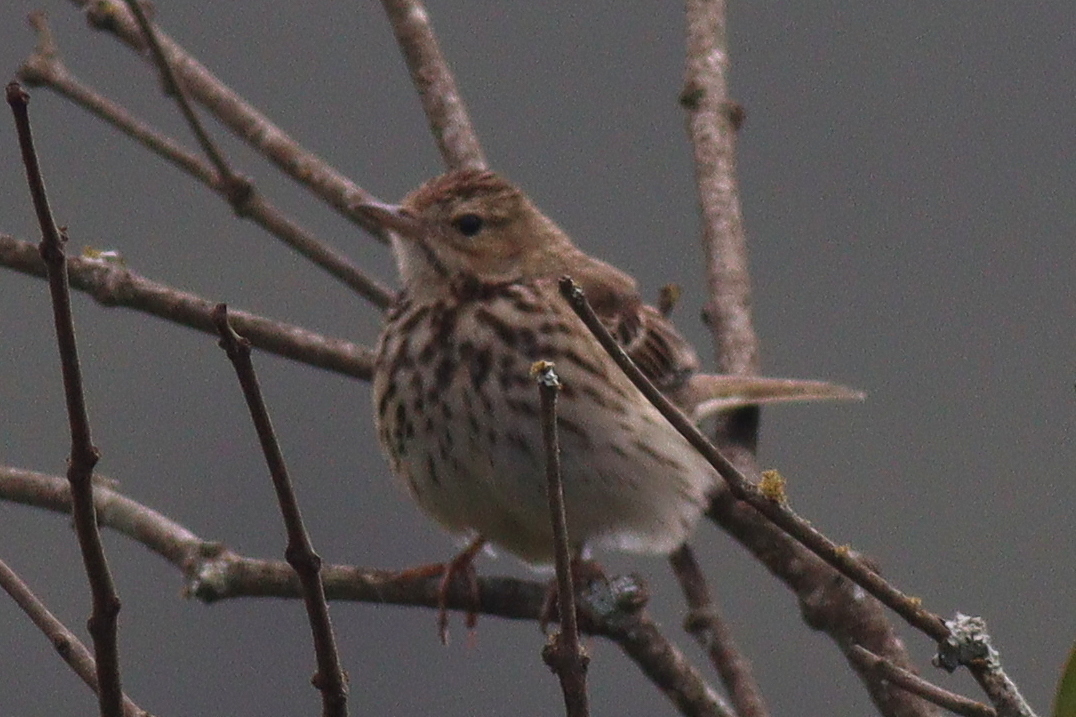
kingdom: Animalia
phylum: Chordata
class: Aves
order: Passeriformes
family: Motacillidae
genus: Anthus
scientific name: Anthus trivialis
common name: Tree pipit
